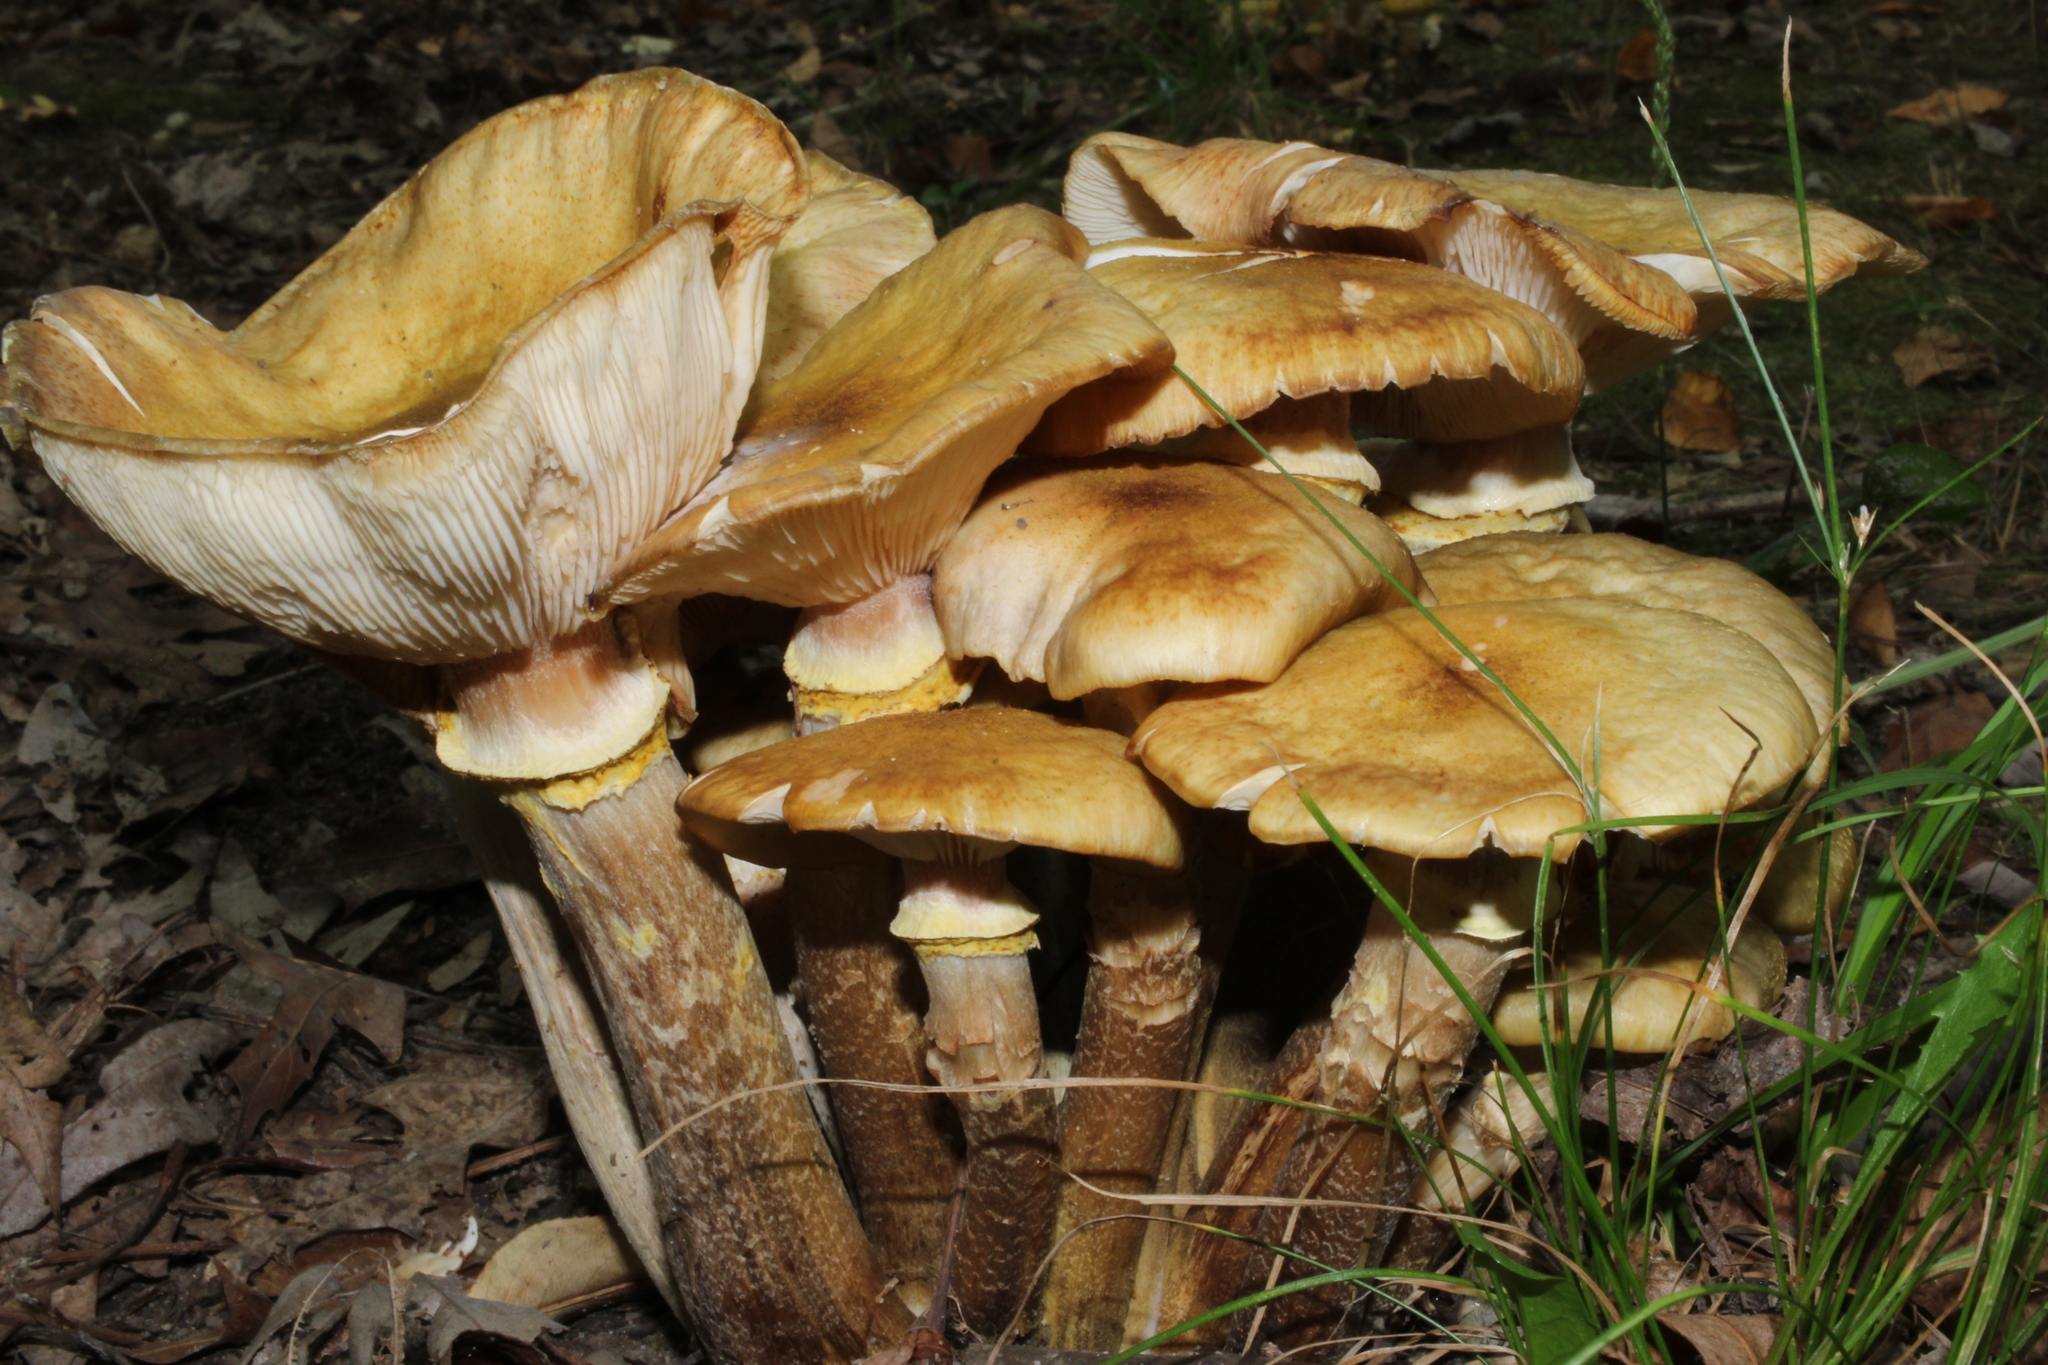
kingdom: Fungi
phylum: Basidiomycota
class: Agaricomycetes
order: Agaricales
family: Physalacriaceae
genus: Armillaria
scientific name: Armillaria mellea
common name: Honey fungus
